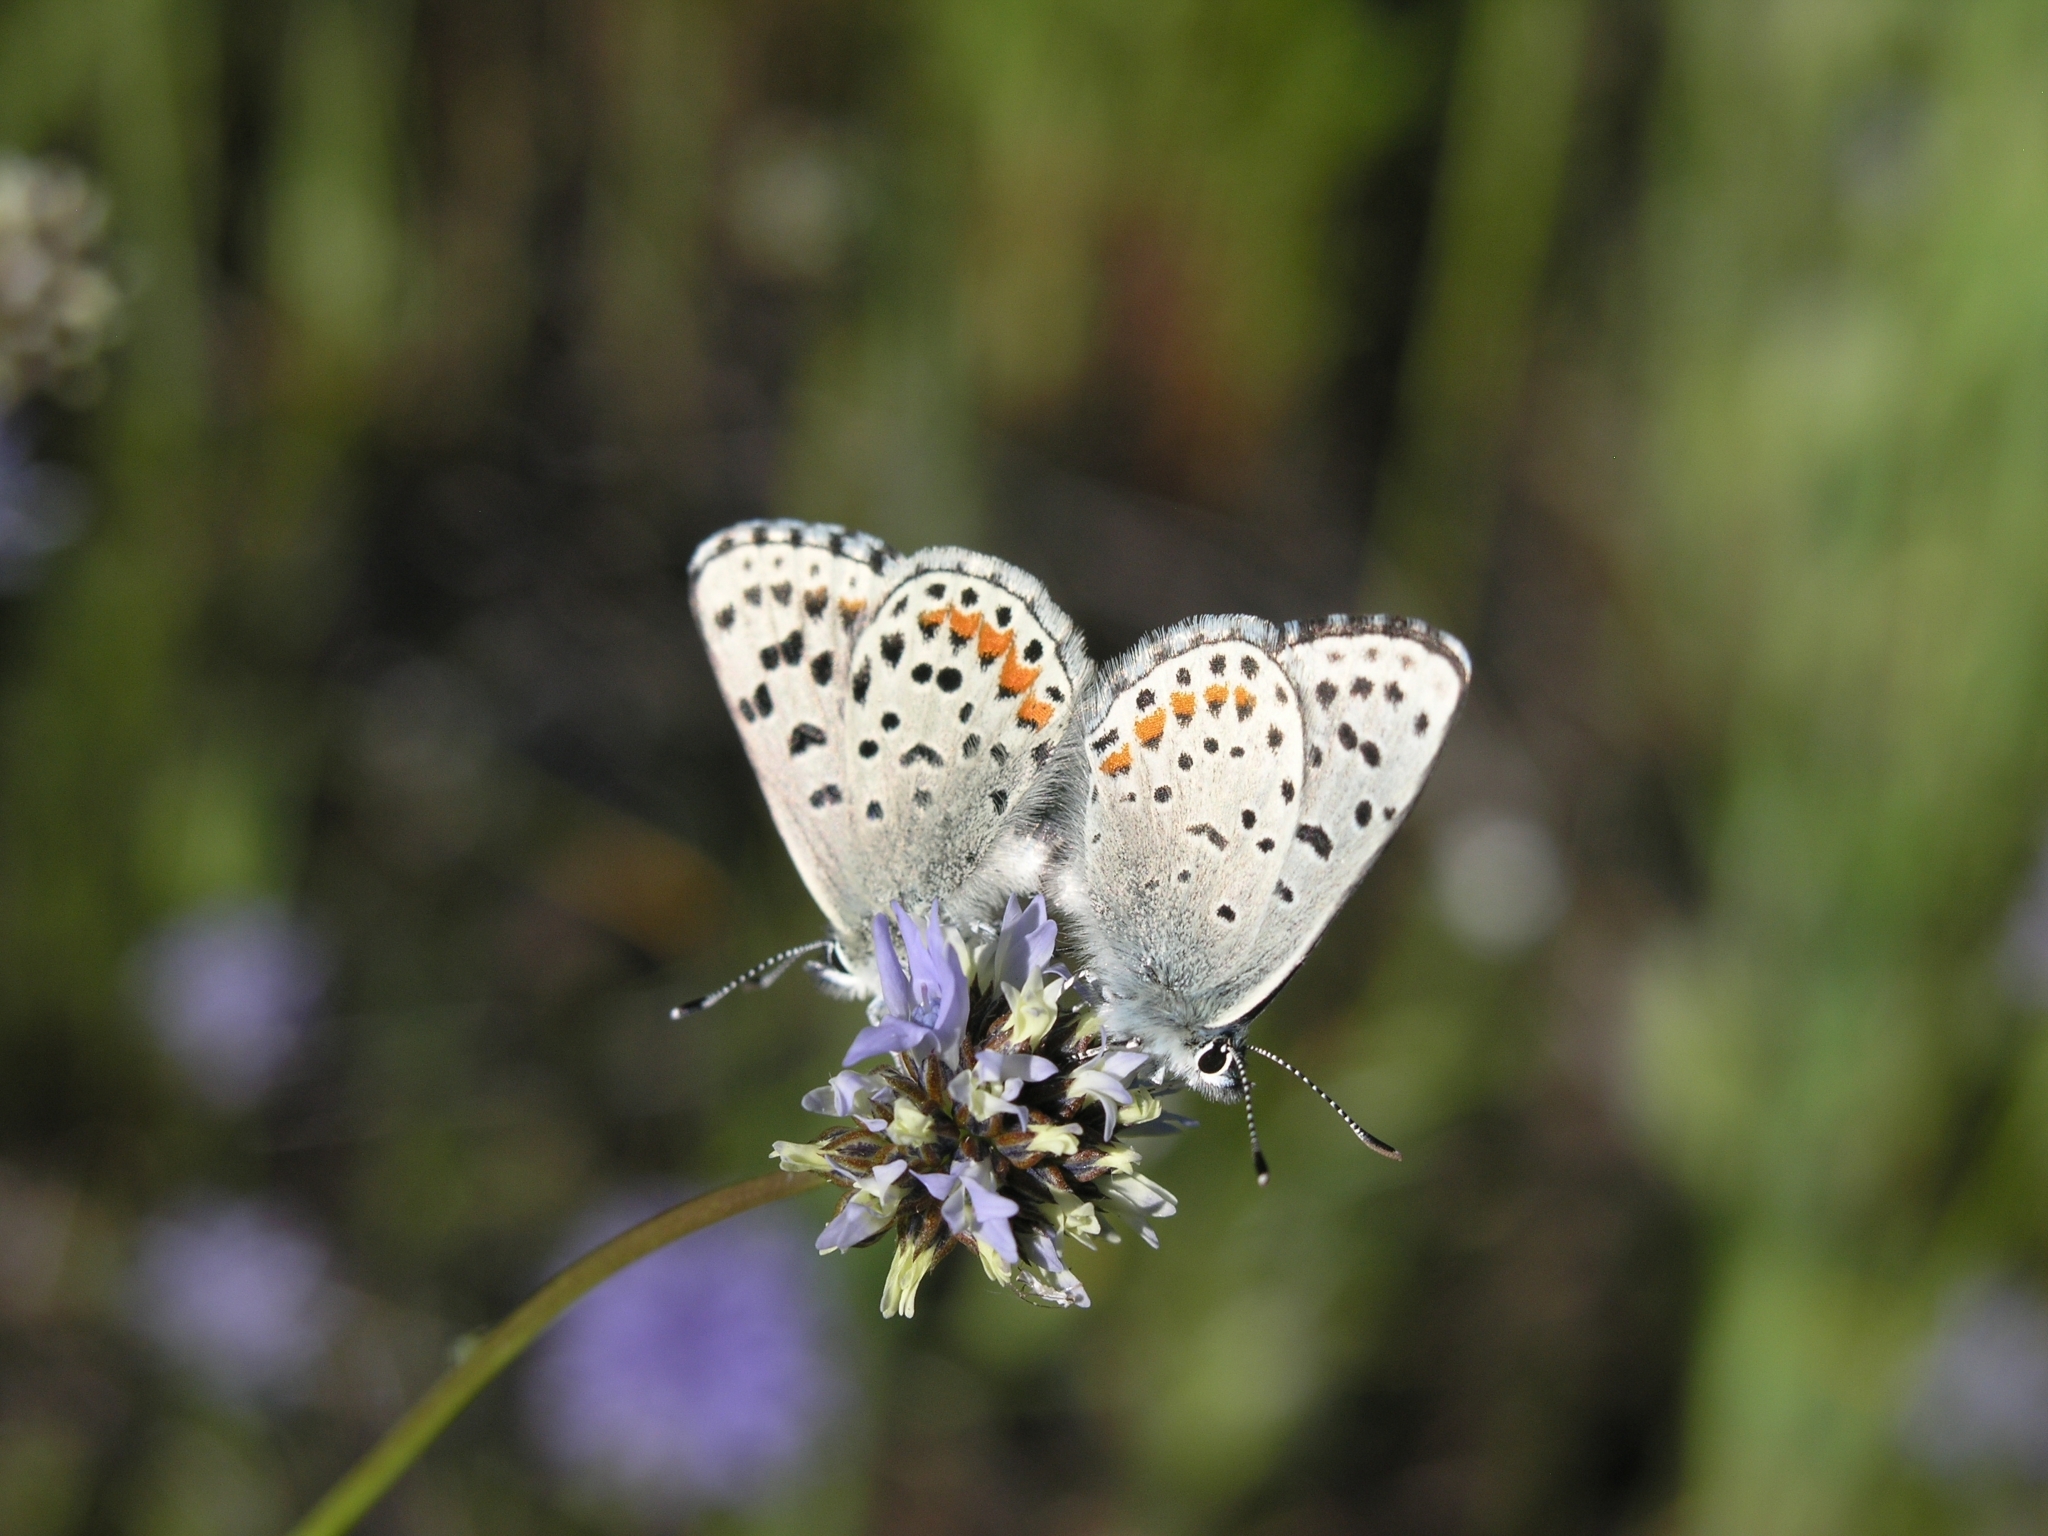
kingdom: Animalia
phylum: Arthropoda
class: Insecta
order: Lepidoptera
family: Lycaenidae
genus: Euphilotes
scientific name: Euphilotes enoptes
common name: Dotted blue
